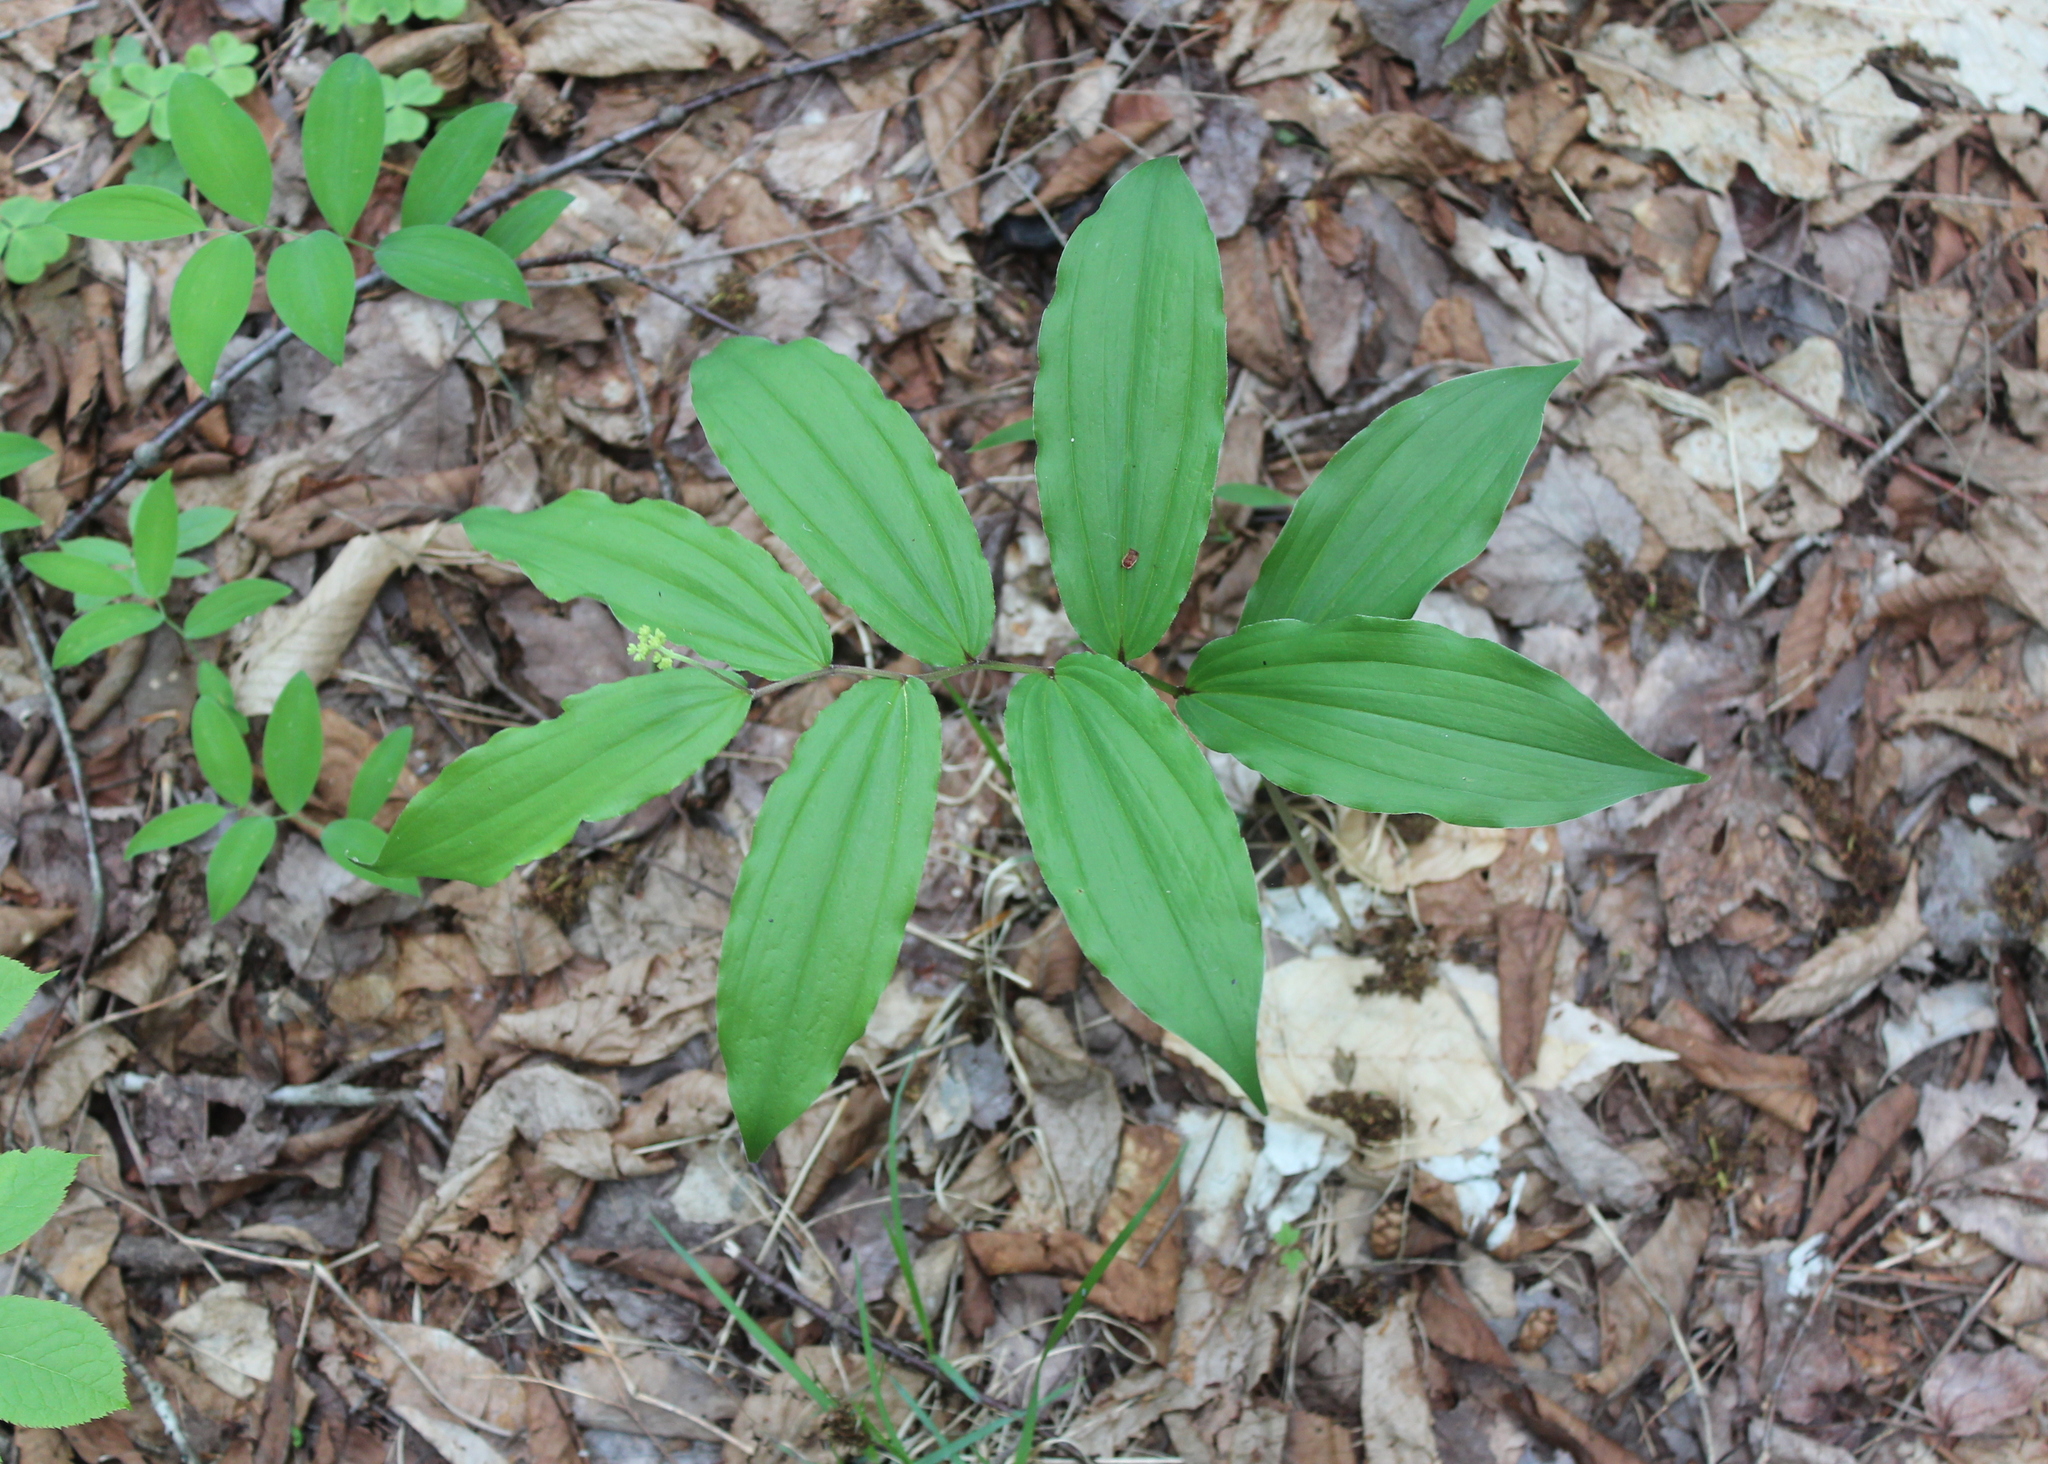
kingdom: Plantae
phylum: Tracheophyta
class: Liliopsida
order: Asparagales
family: Asparagaceae
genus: Maianthemum
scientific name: Maianthemum racemosum
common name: False spikenard
